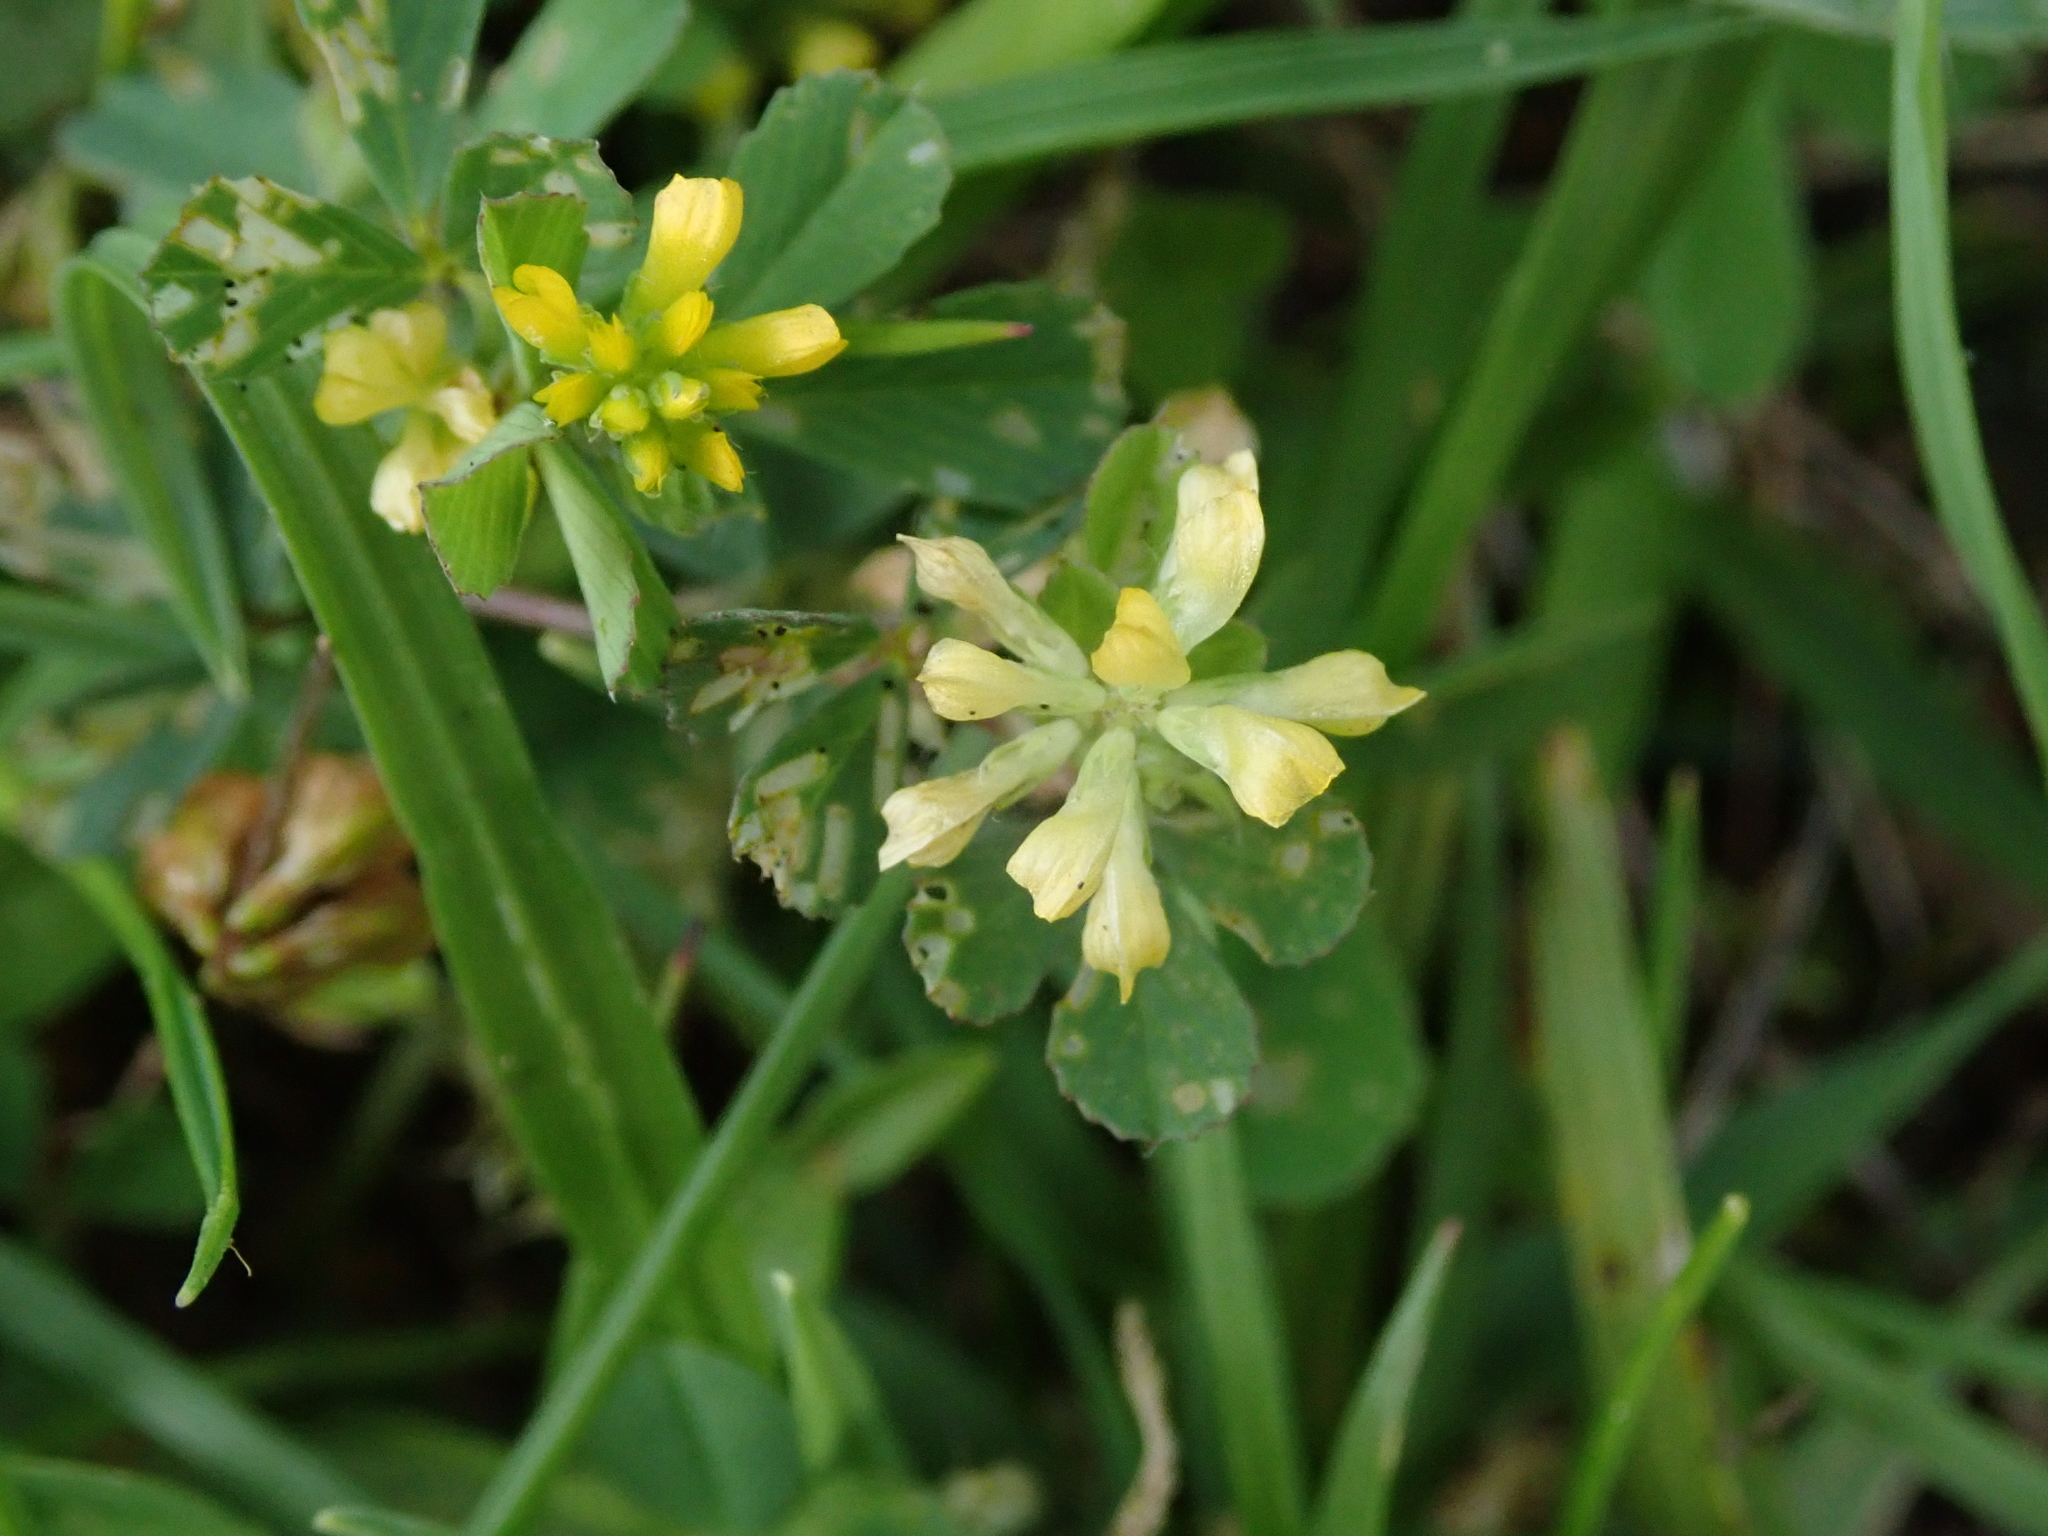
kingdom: Plantae
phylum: Tracheophyta
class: Magnoliopsida
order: Fabales
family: Fabaceae
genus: Trifolium
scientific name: Trifolium dubium
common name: Suckling clover
